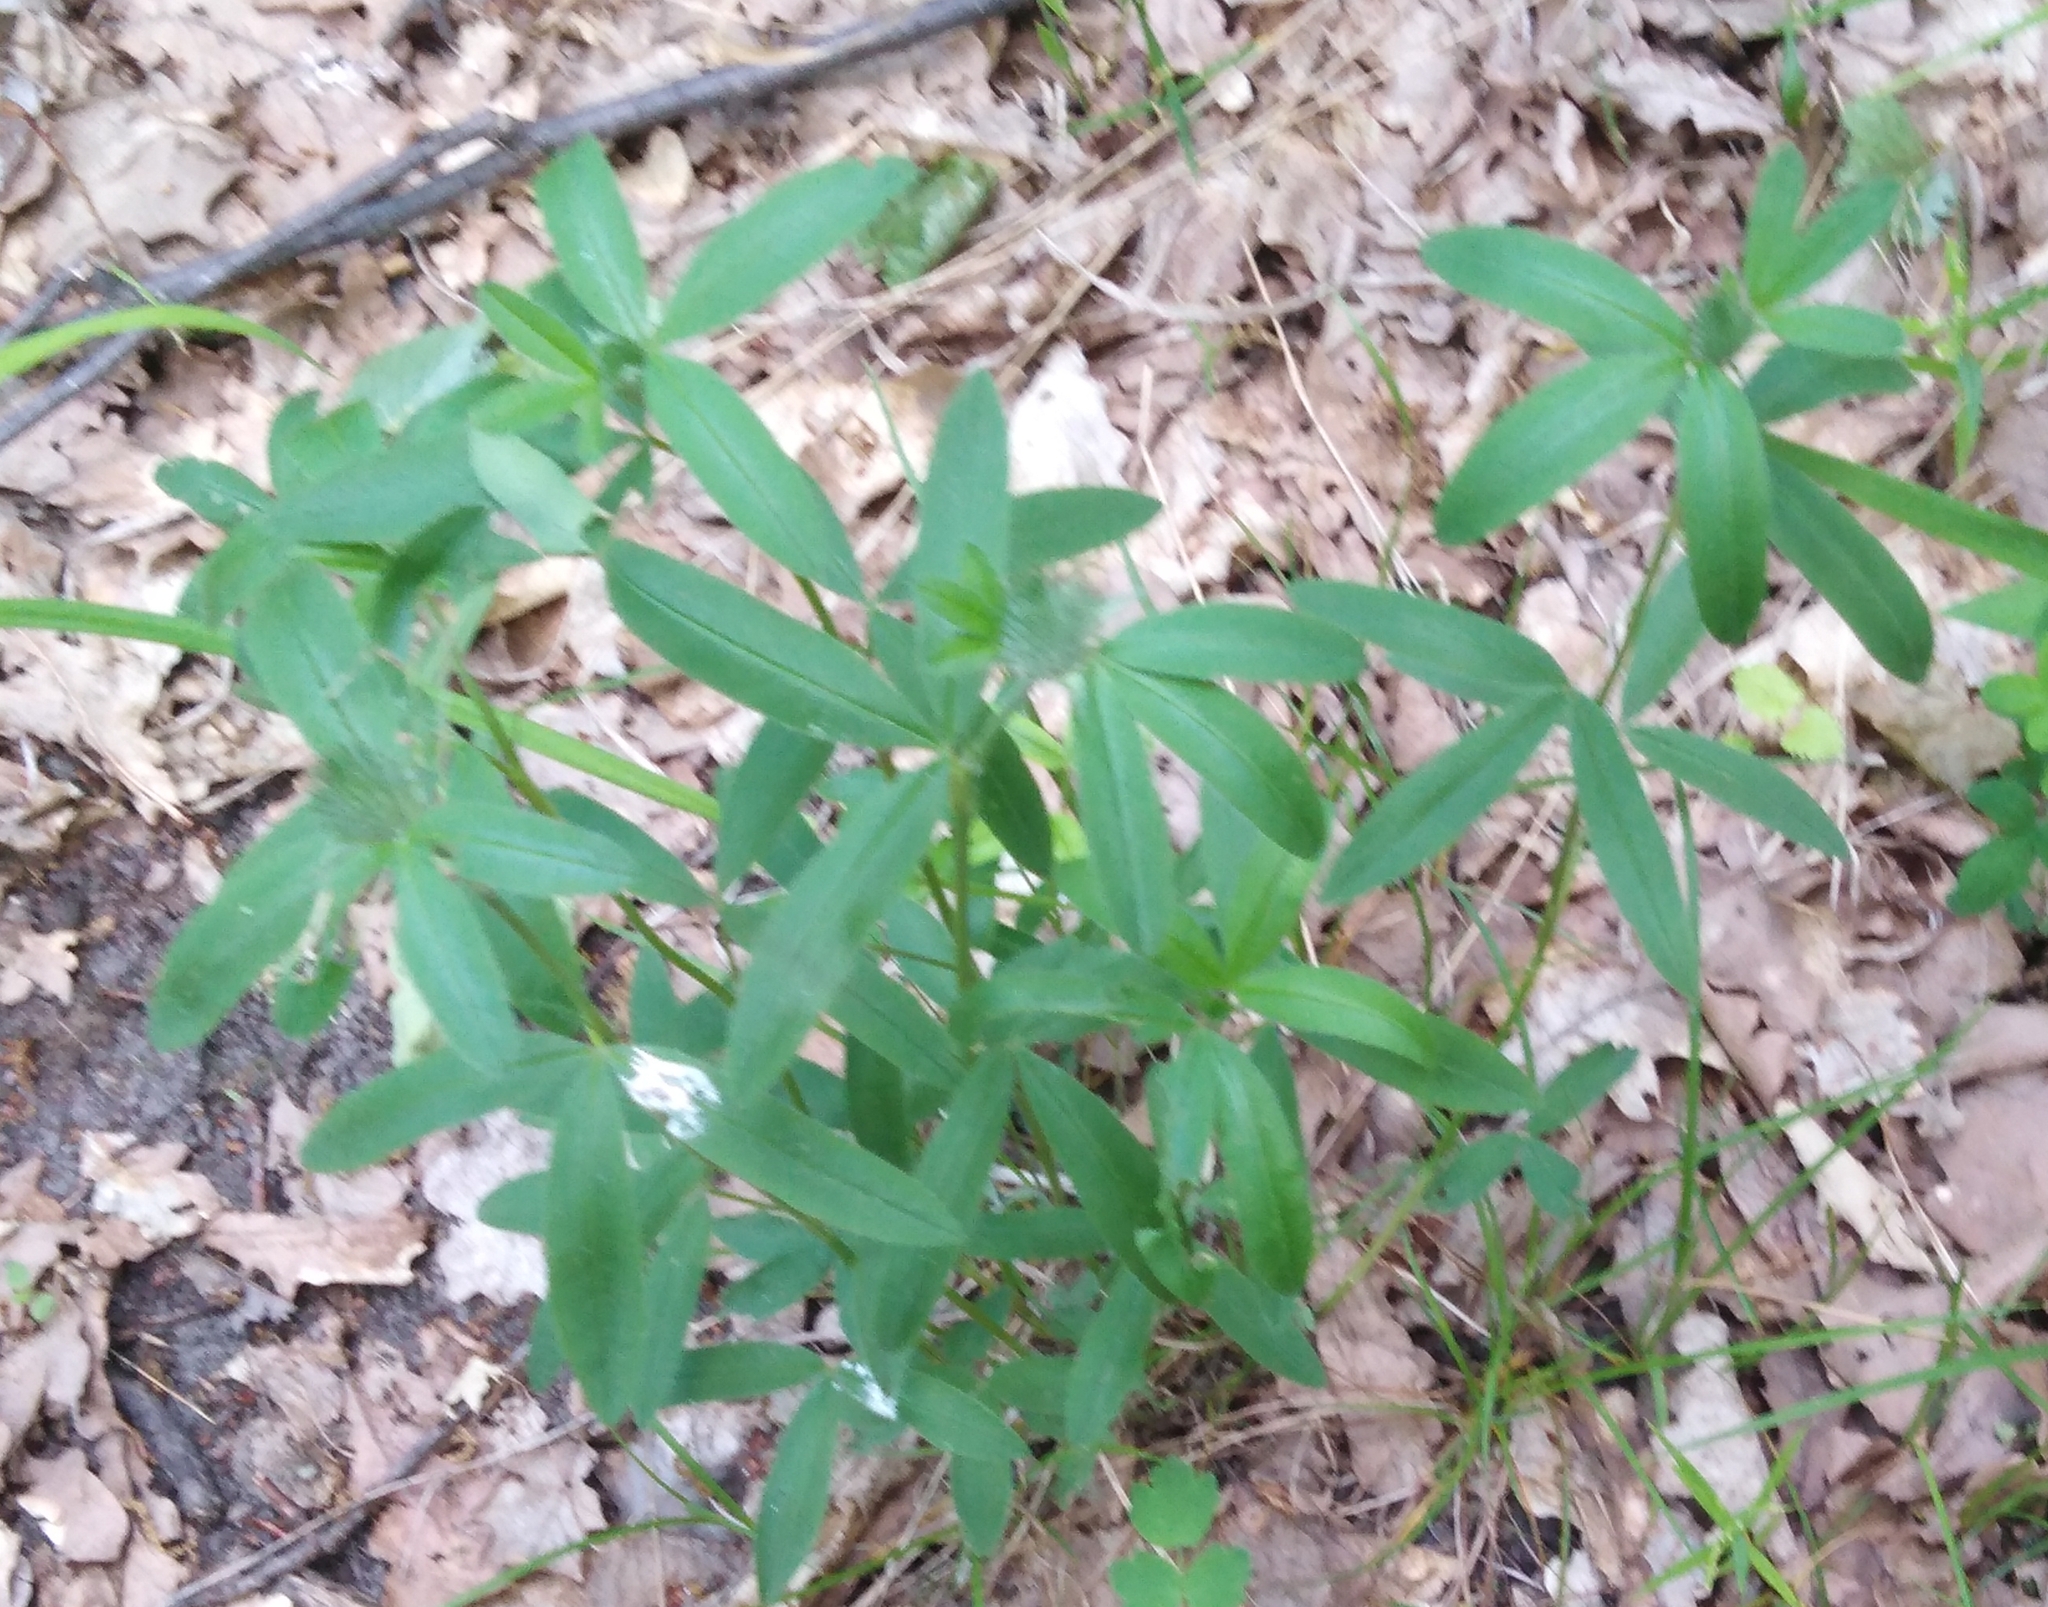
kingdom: Plantae
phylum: Tracheophyta
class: Magnoliopsida
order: Fabales
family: Fabaceae
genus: Trifolium
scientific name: Trifolium alpestre
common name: Owl-head clover
